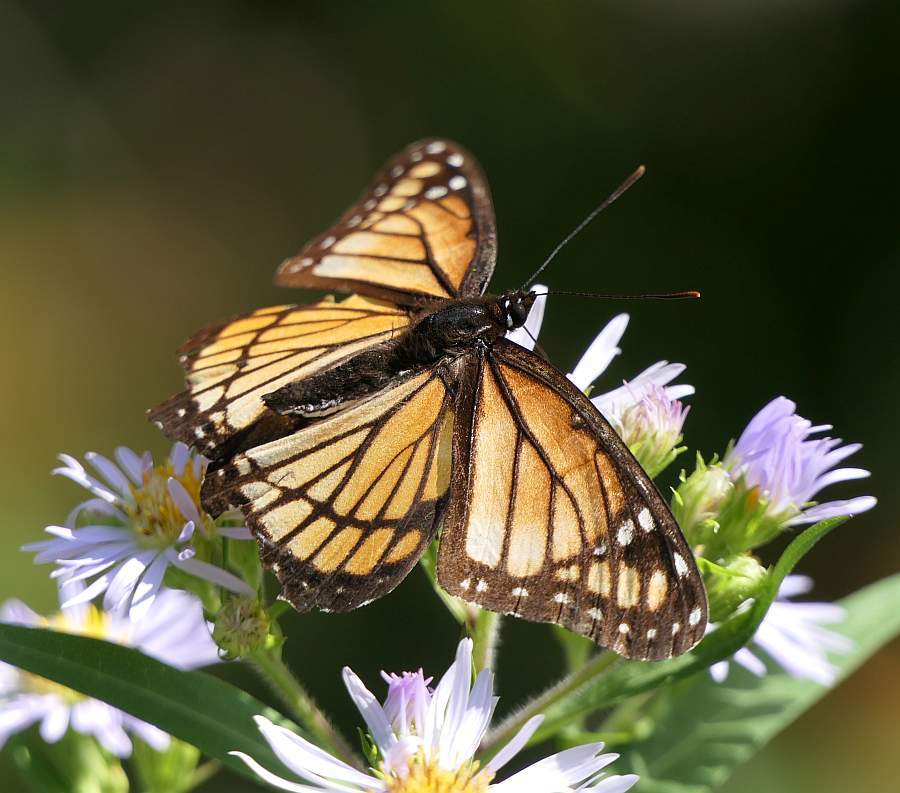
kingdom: Animalia
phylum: Arthropoda
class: Insecta
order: Lepidoptera
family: Nymphalidae
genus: Limenitis
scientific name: Limenitis archippus
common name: Viceroy
